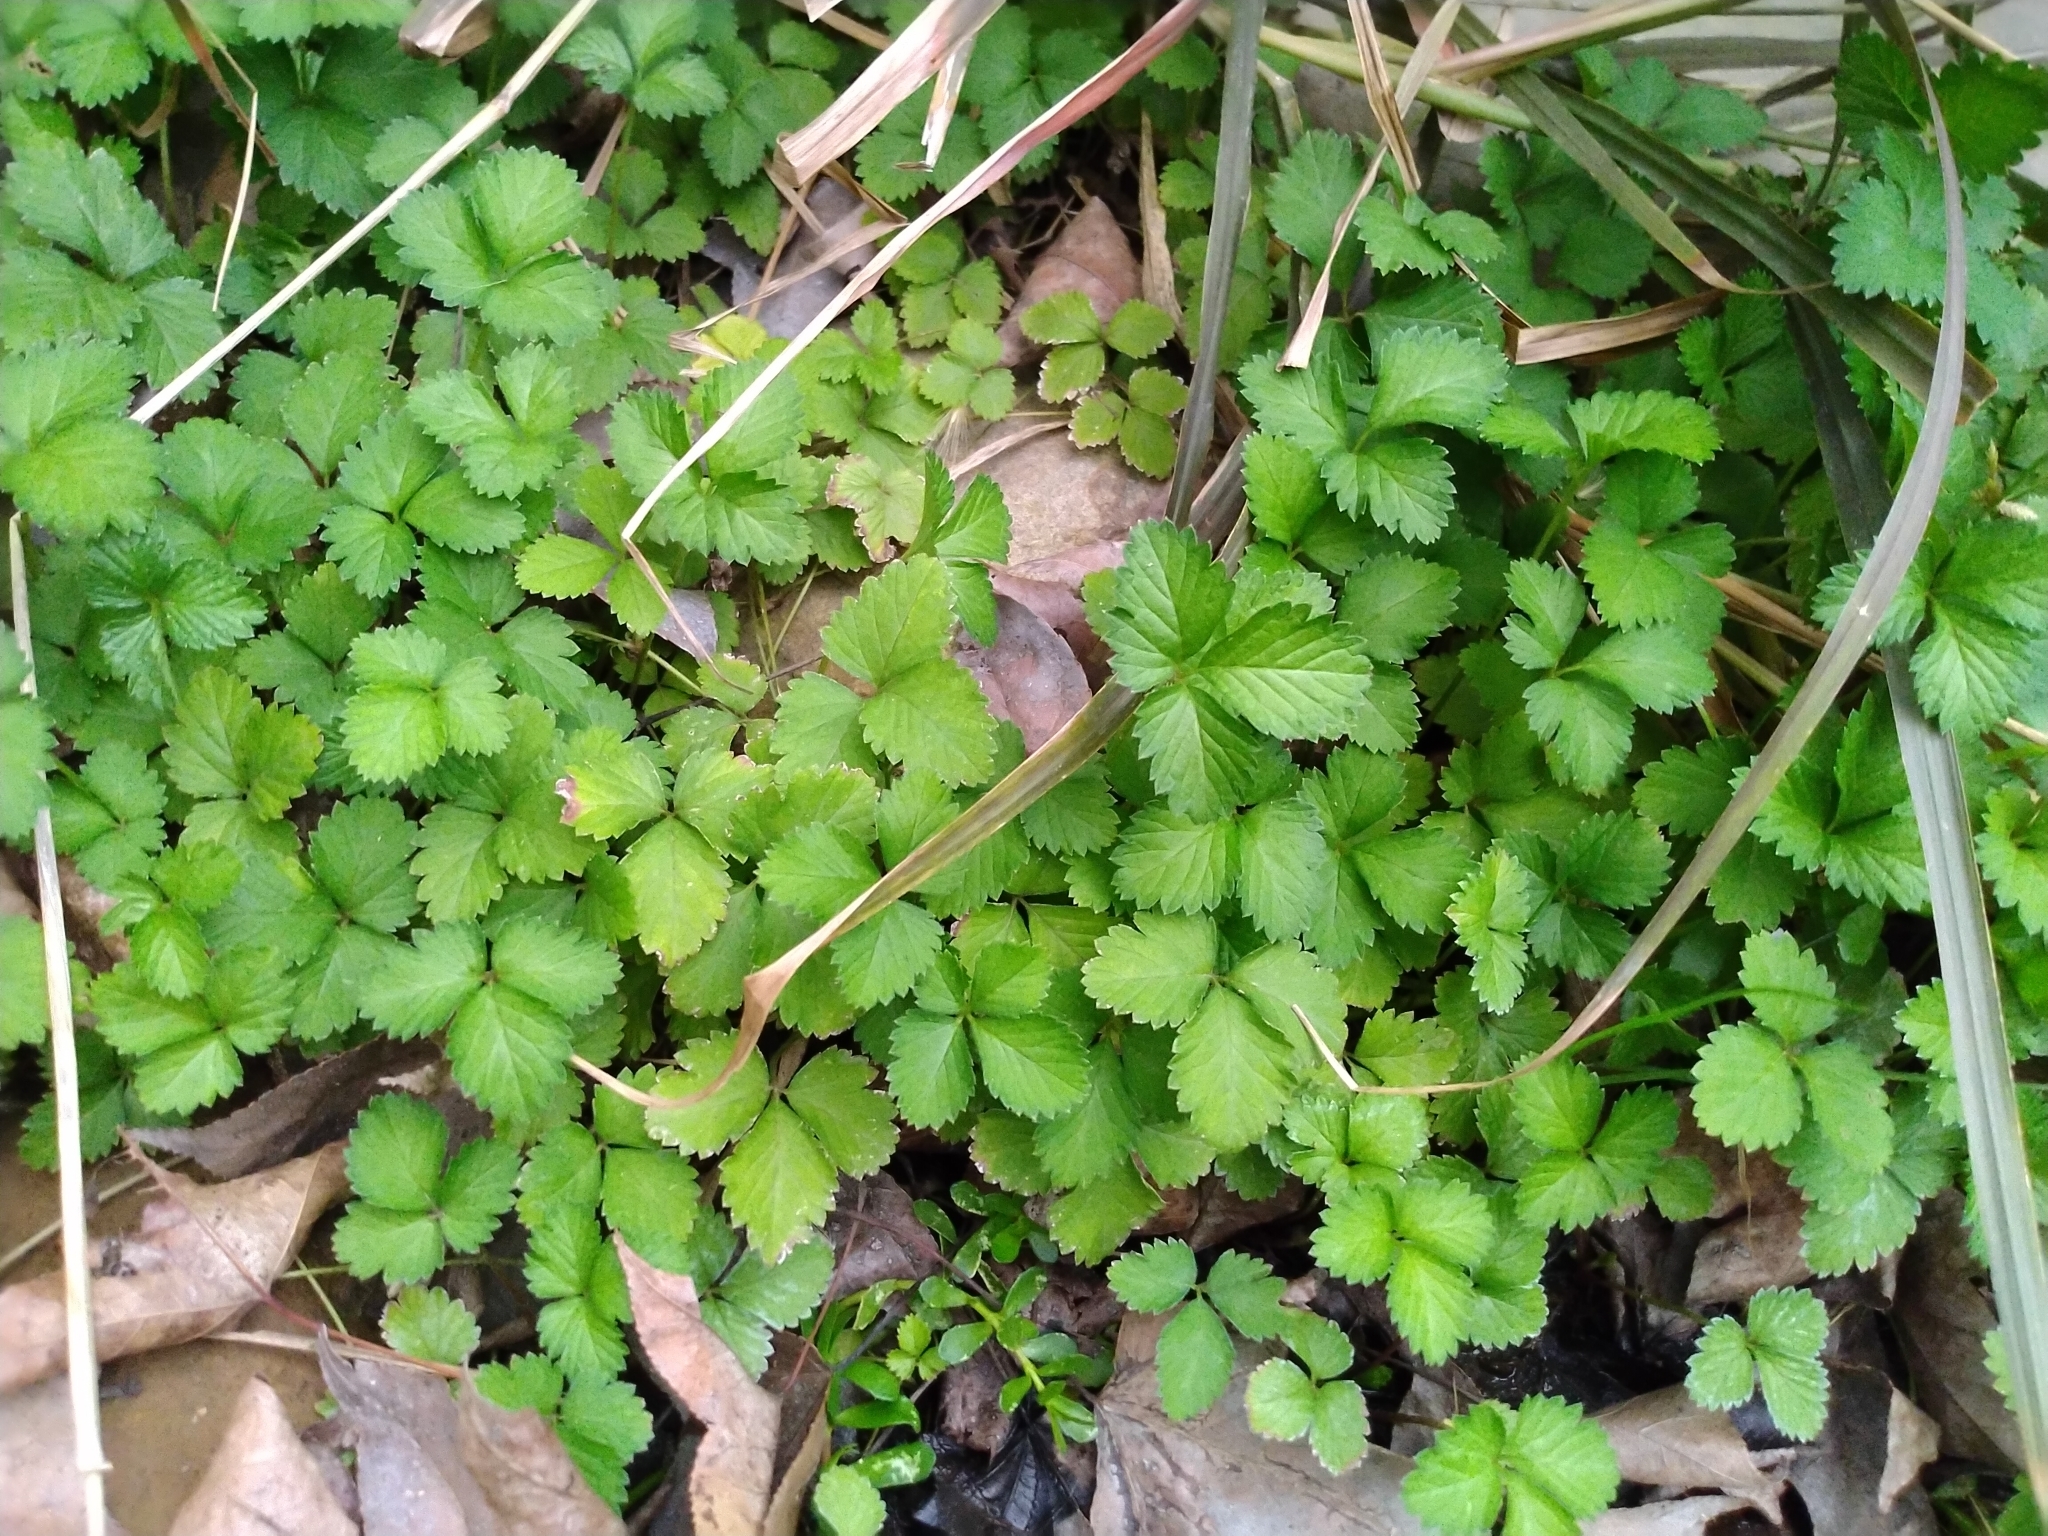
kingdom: Plantae
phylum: Tracheophyta
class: Magnoliopsida
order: Rosales
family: Rosaceae
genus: Potentilla
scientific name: Potentilla indica
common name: Yellow-flowered strawberry
